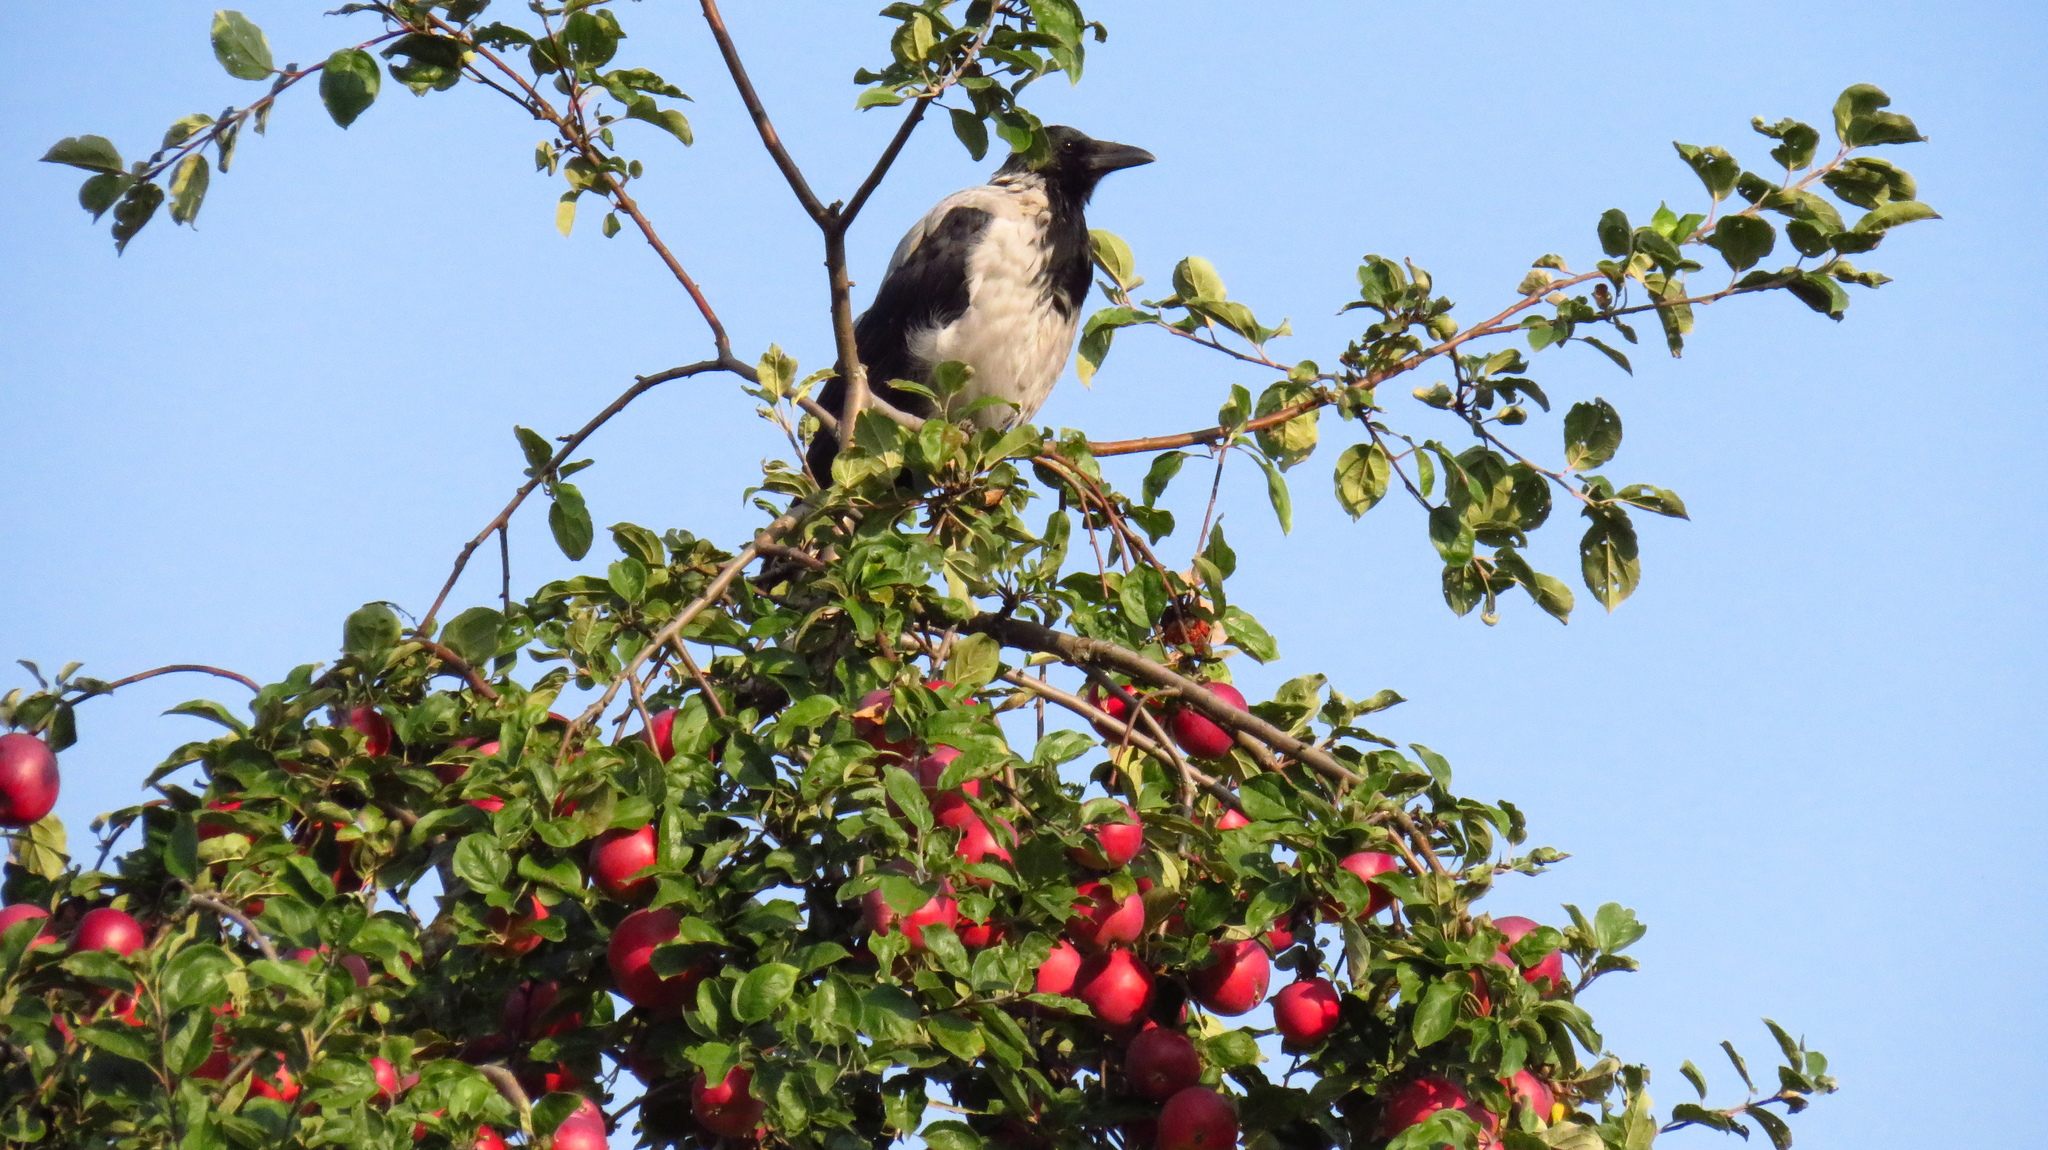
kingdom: Animalia
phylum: Chordata
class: Aves
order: Passeriformes
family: Corvidae
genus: Corvus
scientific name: Corvus cornix
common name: Hooded crow
